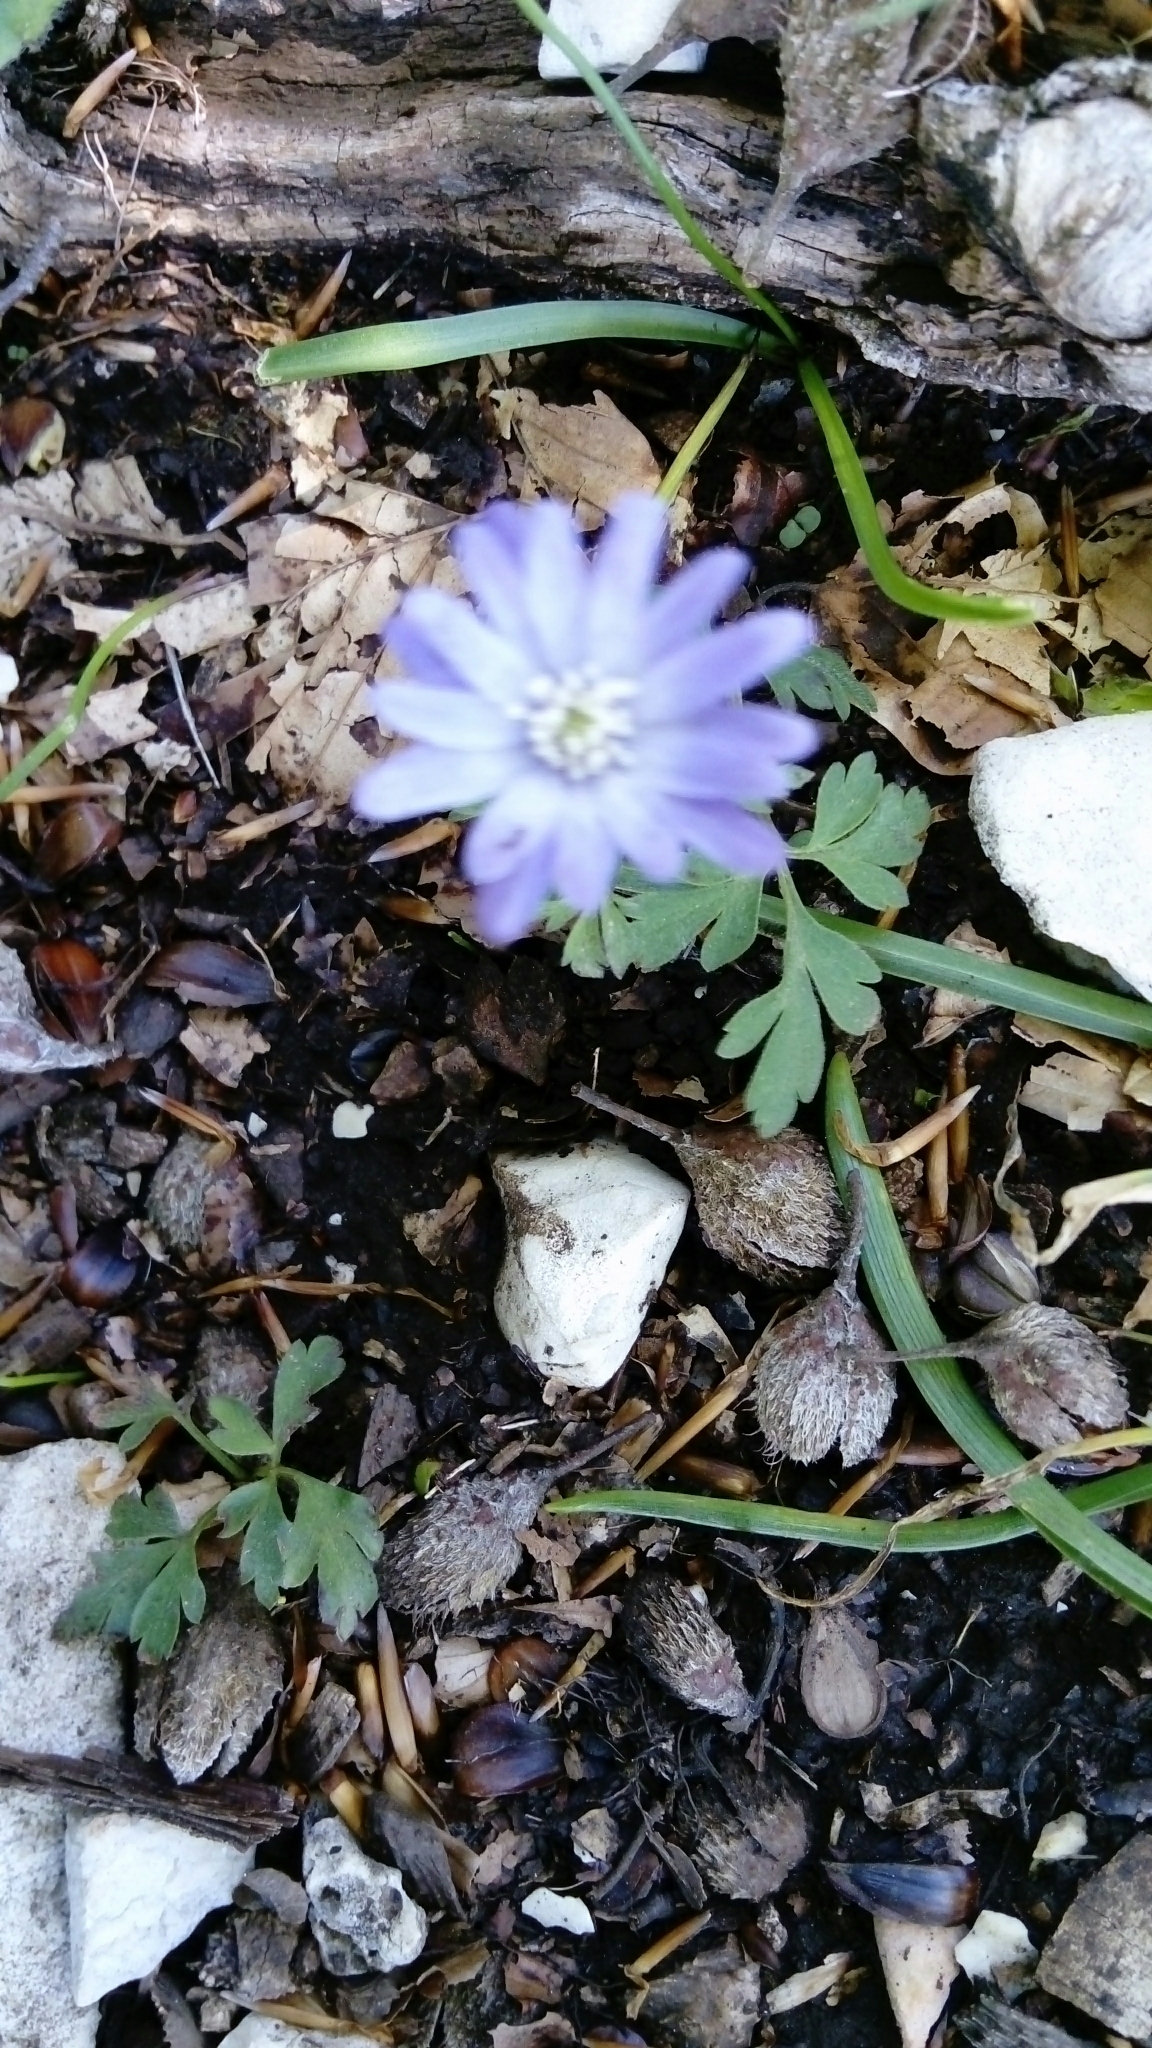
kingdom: Plantae
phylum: Tracheophyta
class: Magnoliopsida
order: Ranunculales
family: Ranunculaceae
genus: Anemone
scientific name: Anemone apennina
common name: Blue anemone
